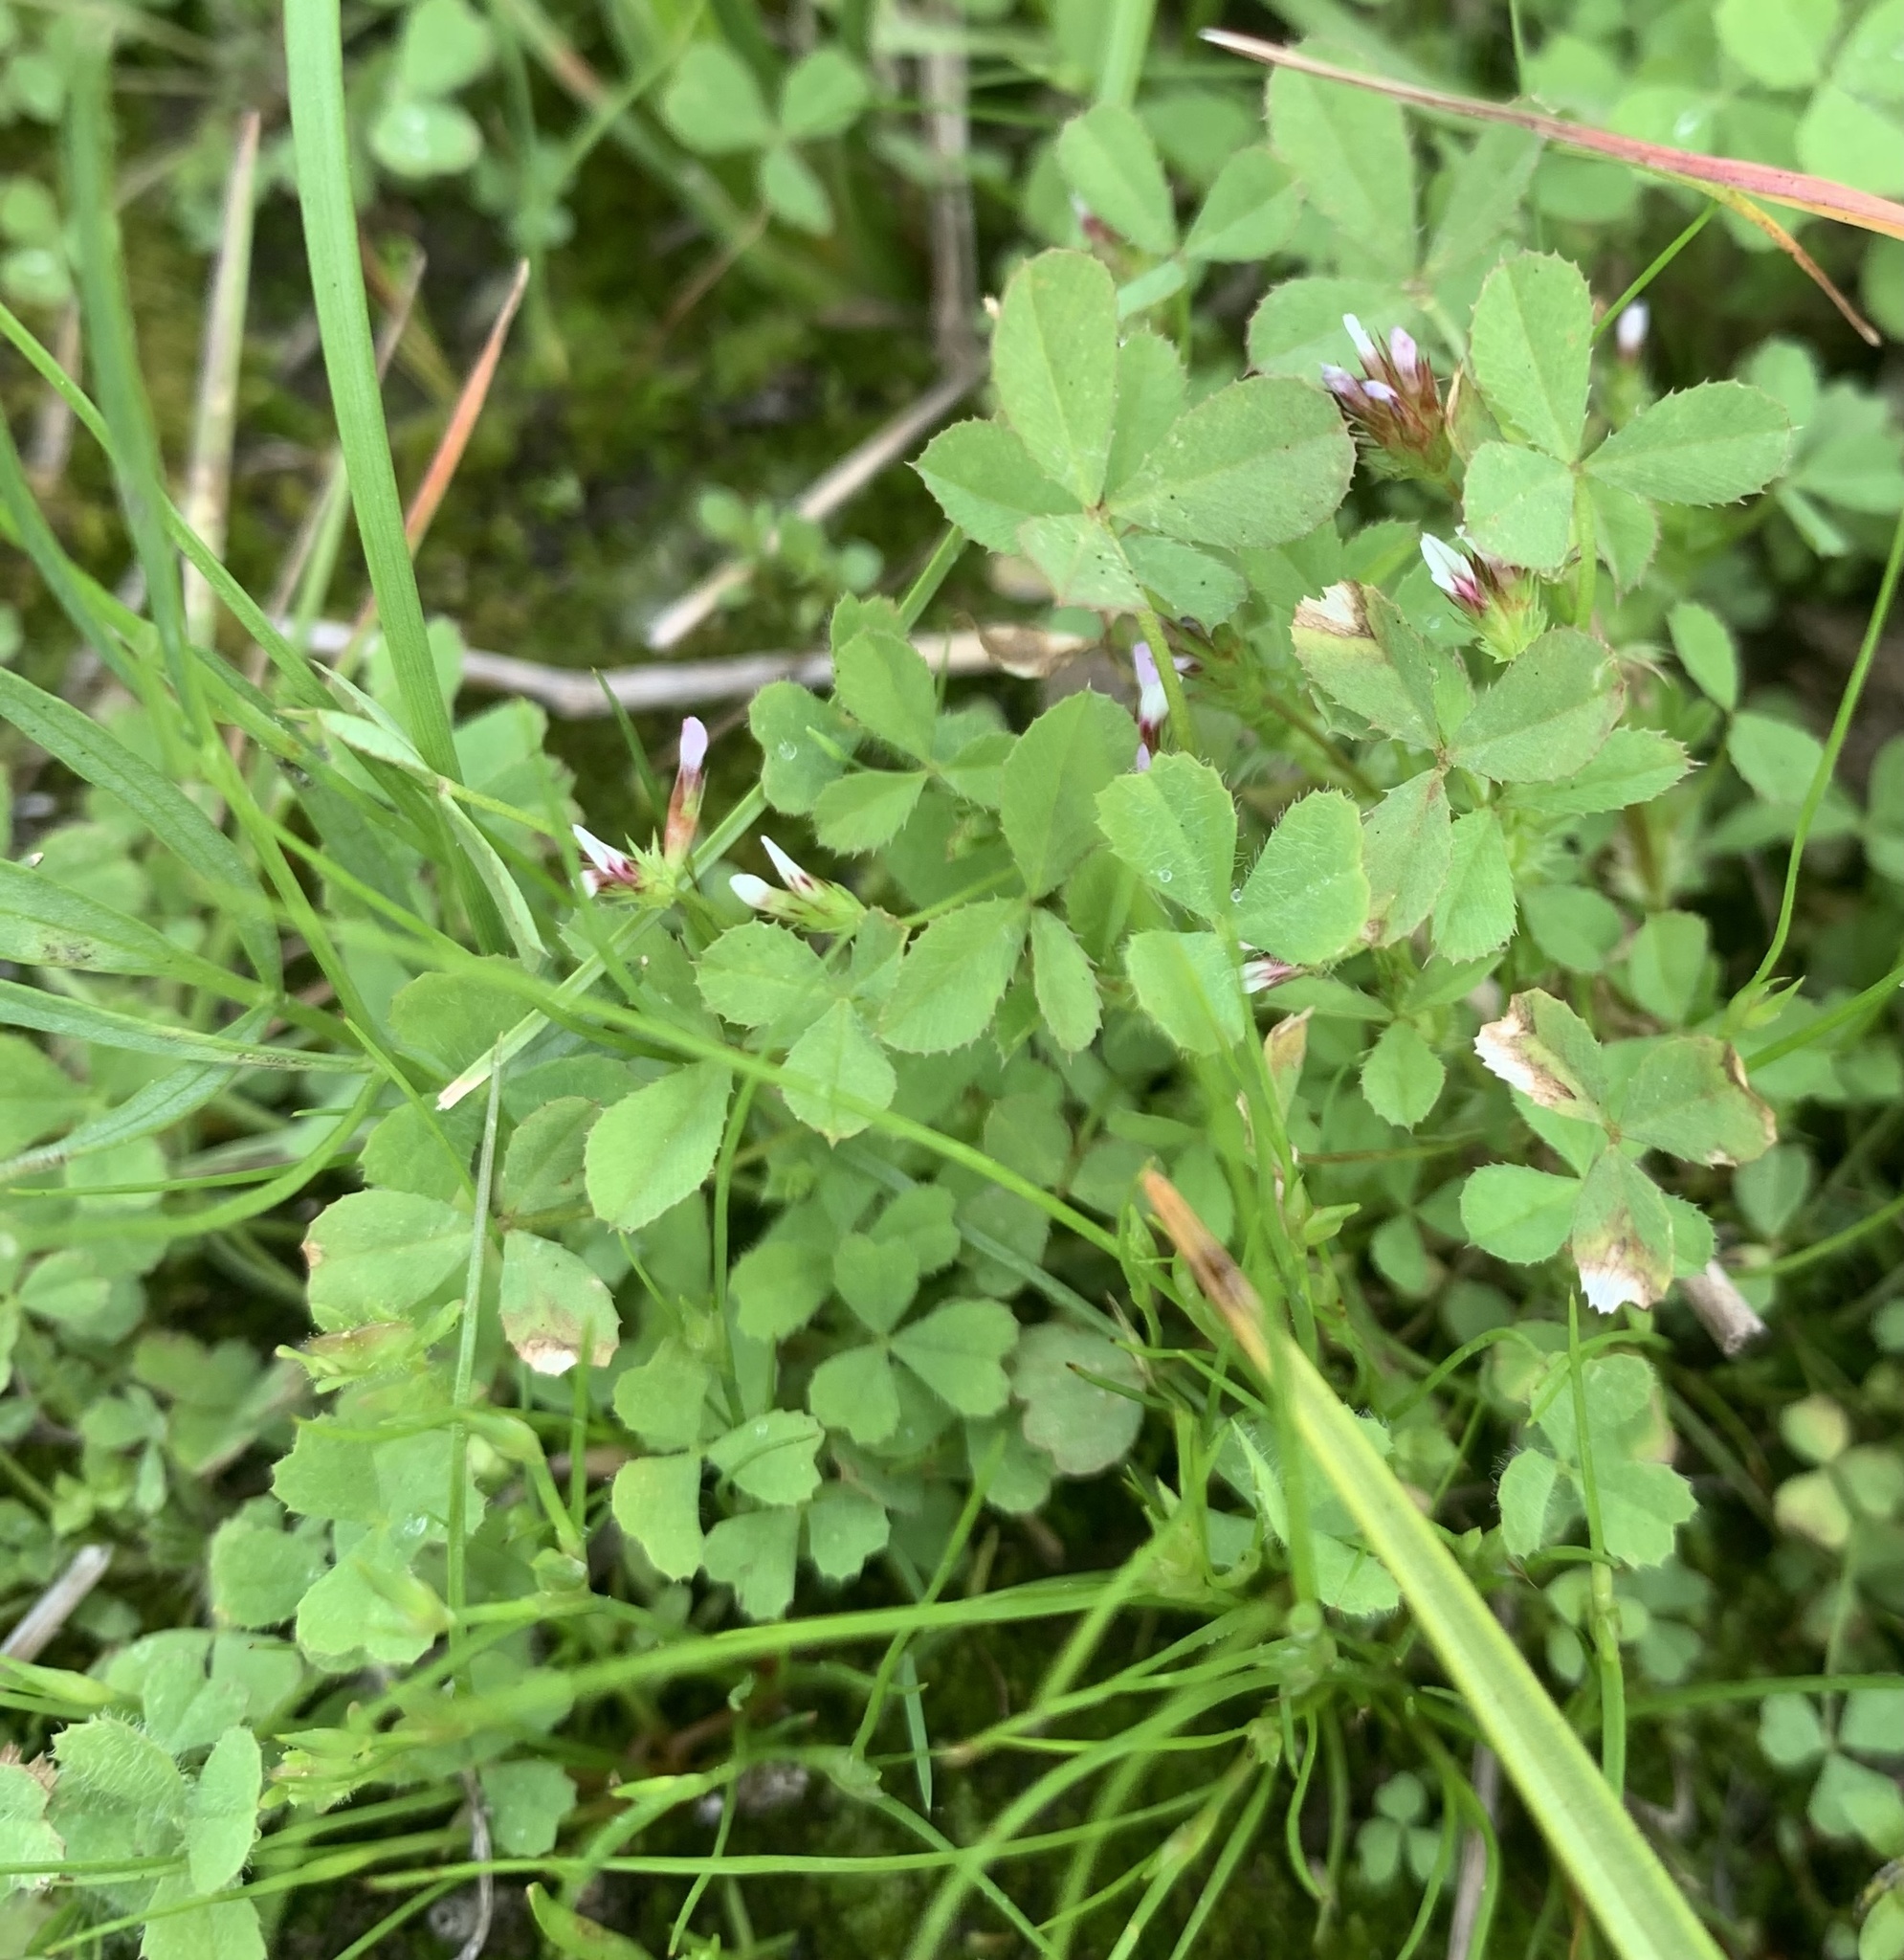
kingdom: Plantae
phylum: Tracheophyta
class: Magnoliopsida
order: Fabales
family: Fabaceae
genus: Trifolium
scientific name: Trifolium variegatum
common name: Whitetip clover
